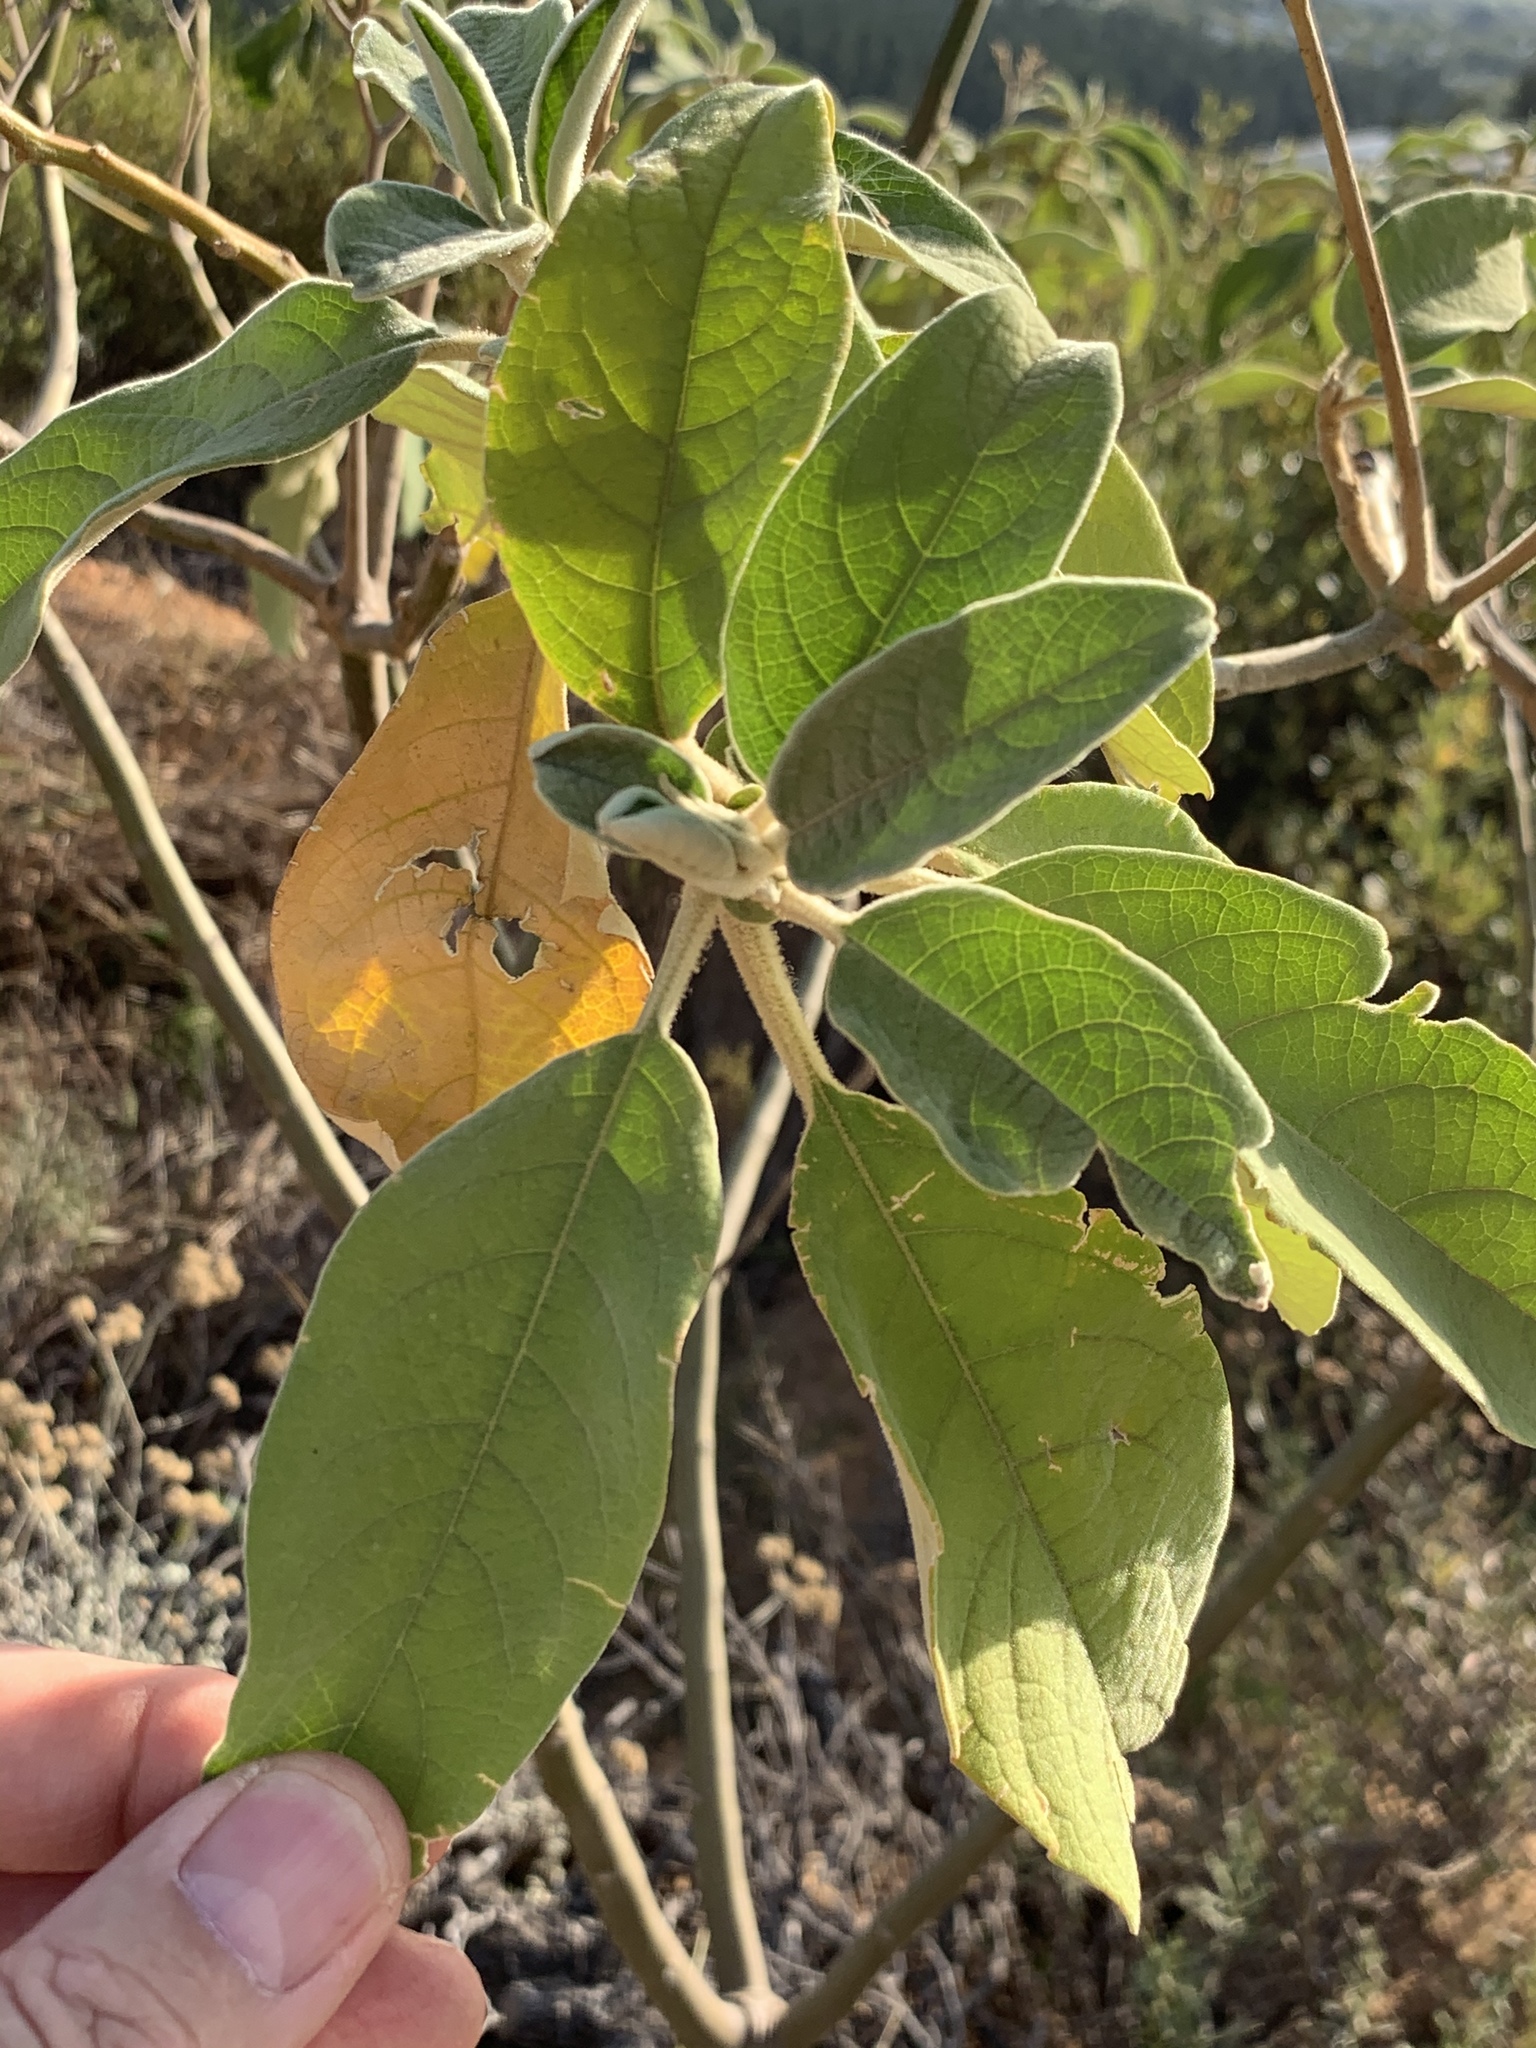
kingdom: Plantae
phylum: Tracheophyta
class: Magnoliopsida
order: Solanales
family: Solanaceae
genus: Solanum
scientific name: Solanum mauritianum
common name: Earleaf nightshade
